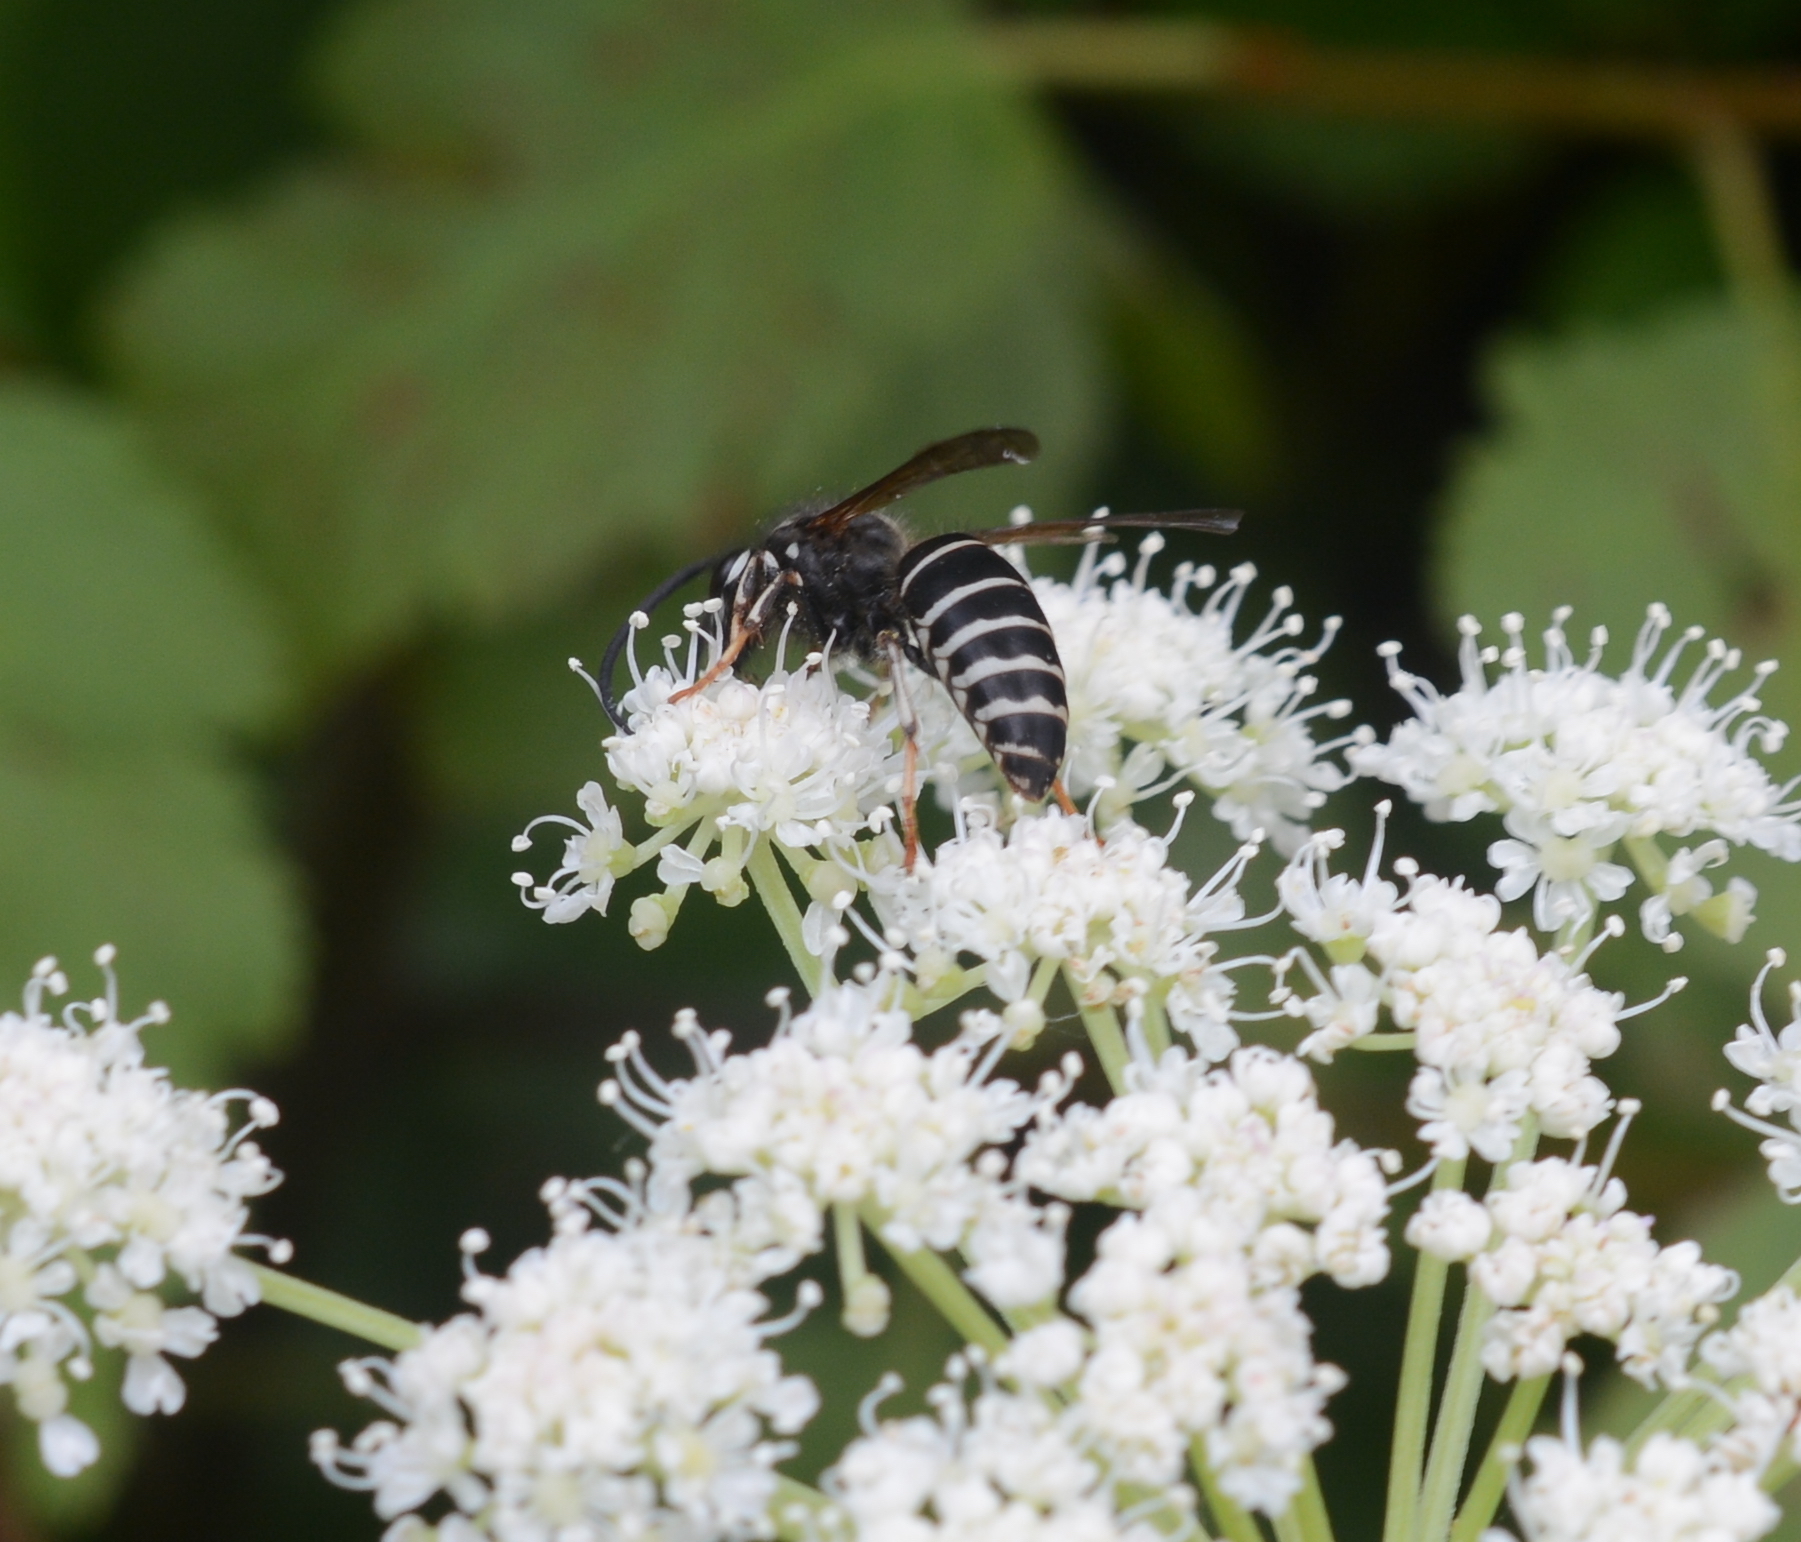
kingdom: Animalia
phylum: Arthropoda
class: Insecta
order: Hymenoptera
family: Vespidae
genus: Dolichovespula
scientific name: Dolichovespula adulterina
